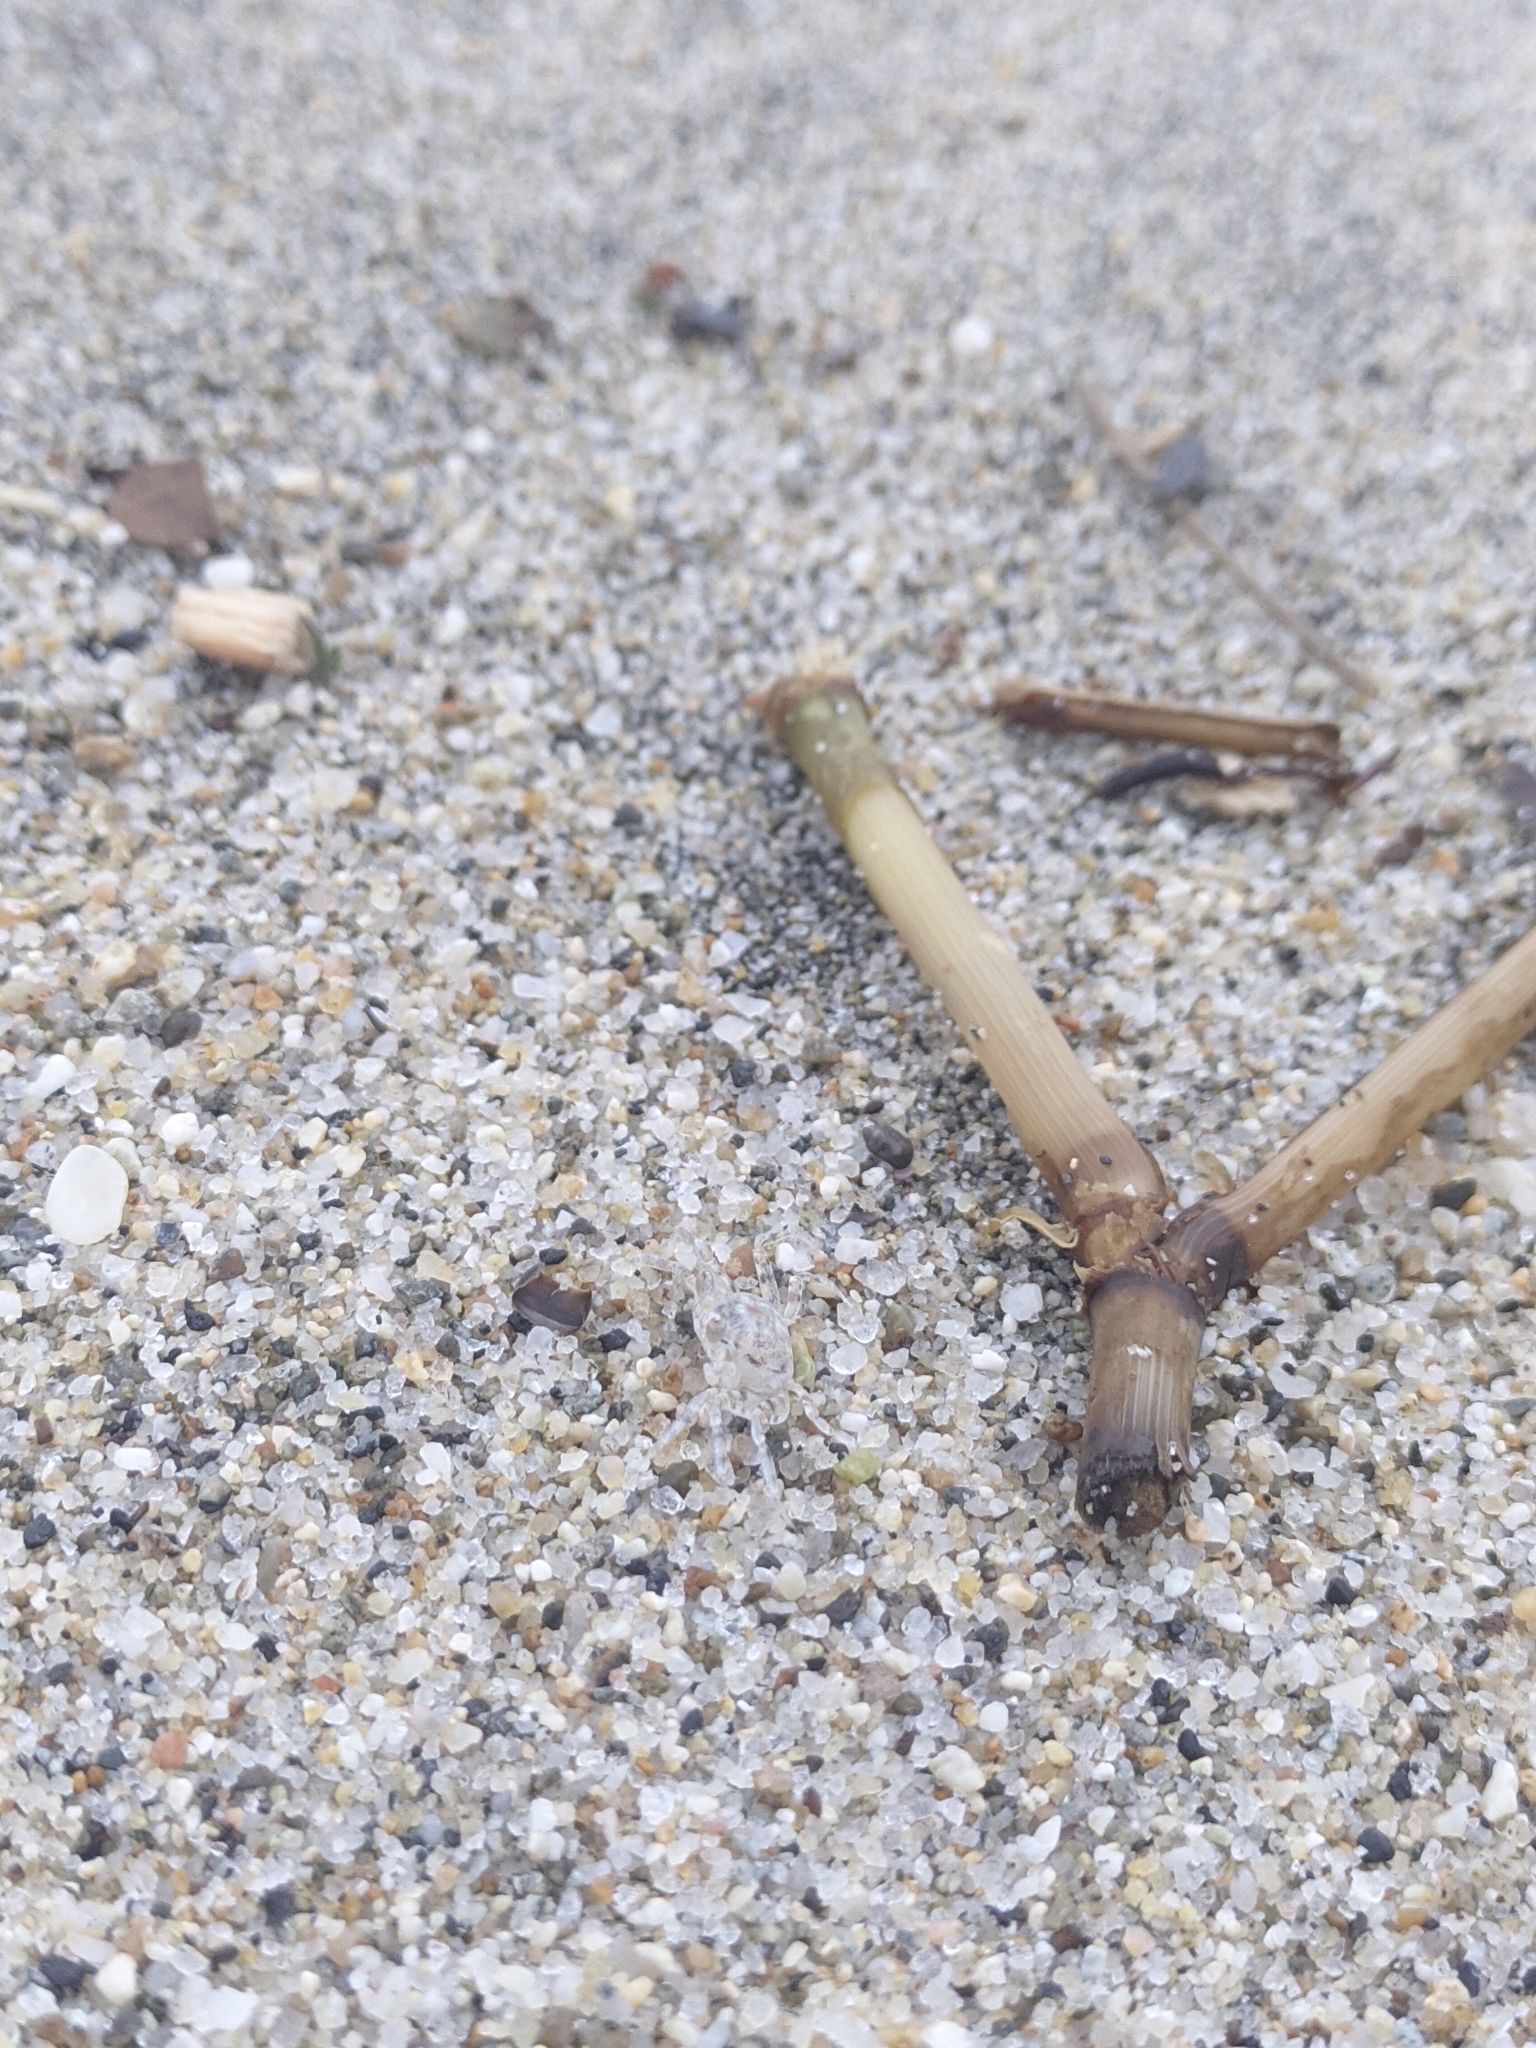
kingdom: Animalia
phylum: Arthropoda
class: Malacostraca
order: Decapoda
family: Ocypodidae
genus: Ocypode
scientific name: Ocypode quadrata
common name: Ghost crab
